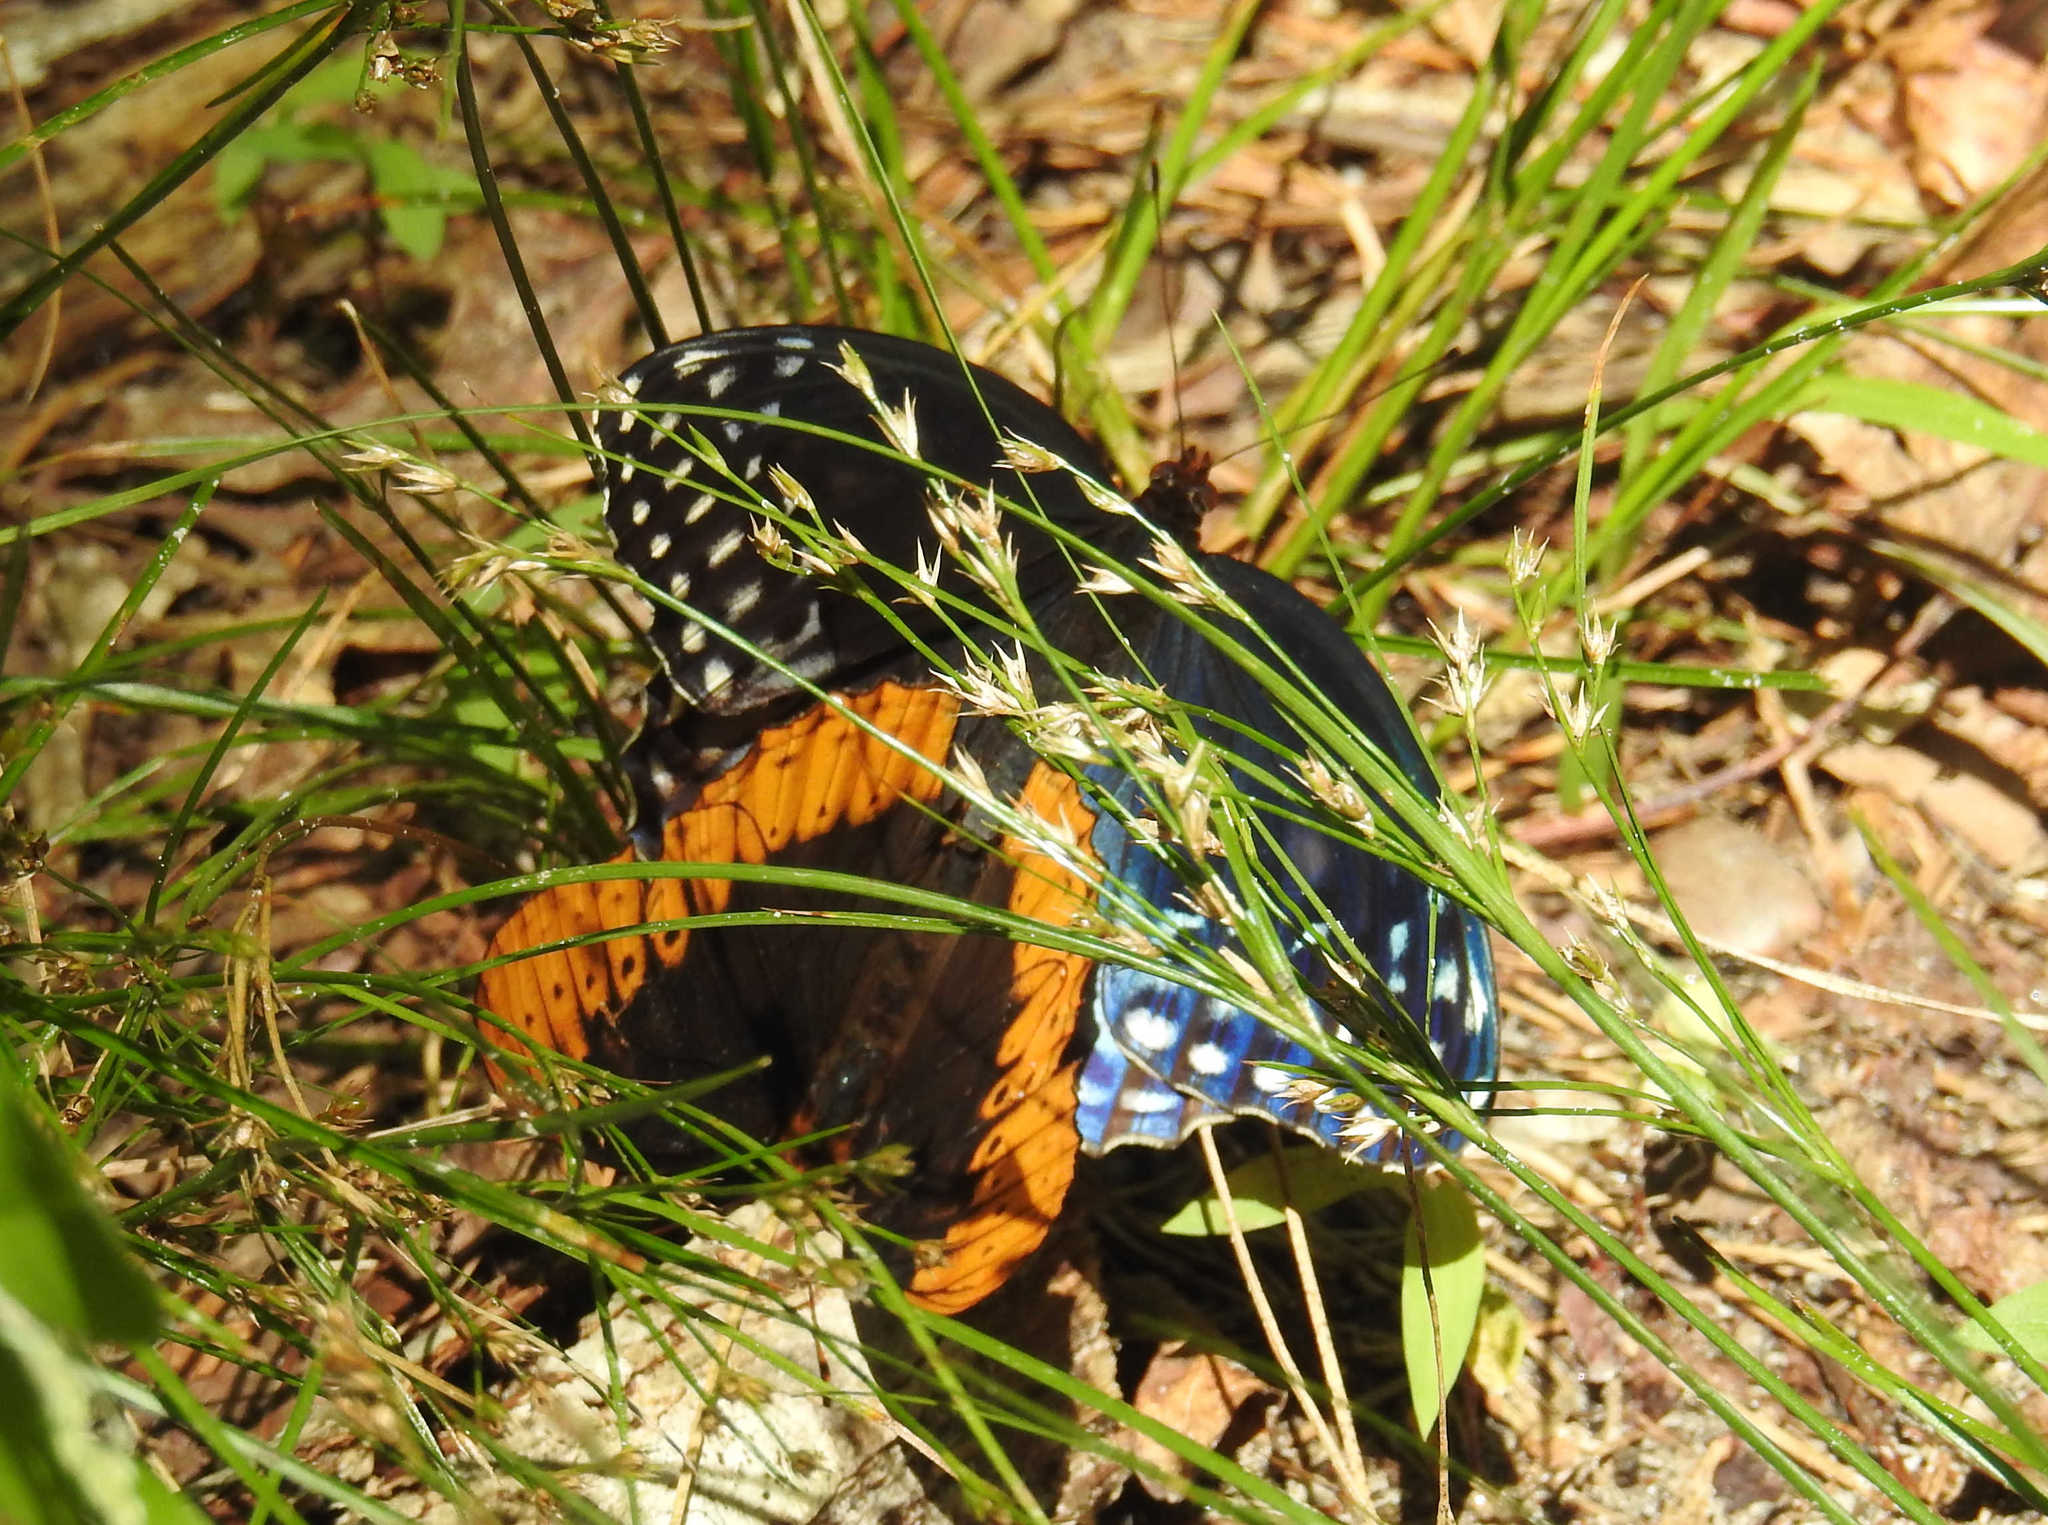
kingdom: Animalia
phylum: Arthropoda
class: Insecta
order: Lepidoptera
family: Nymphalidae
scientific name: Nymphalidae
